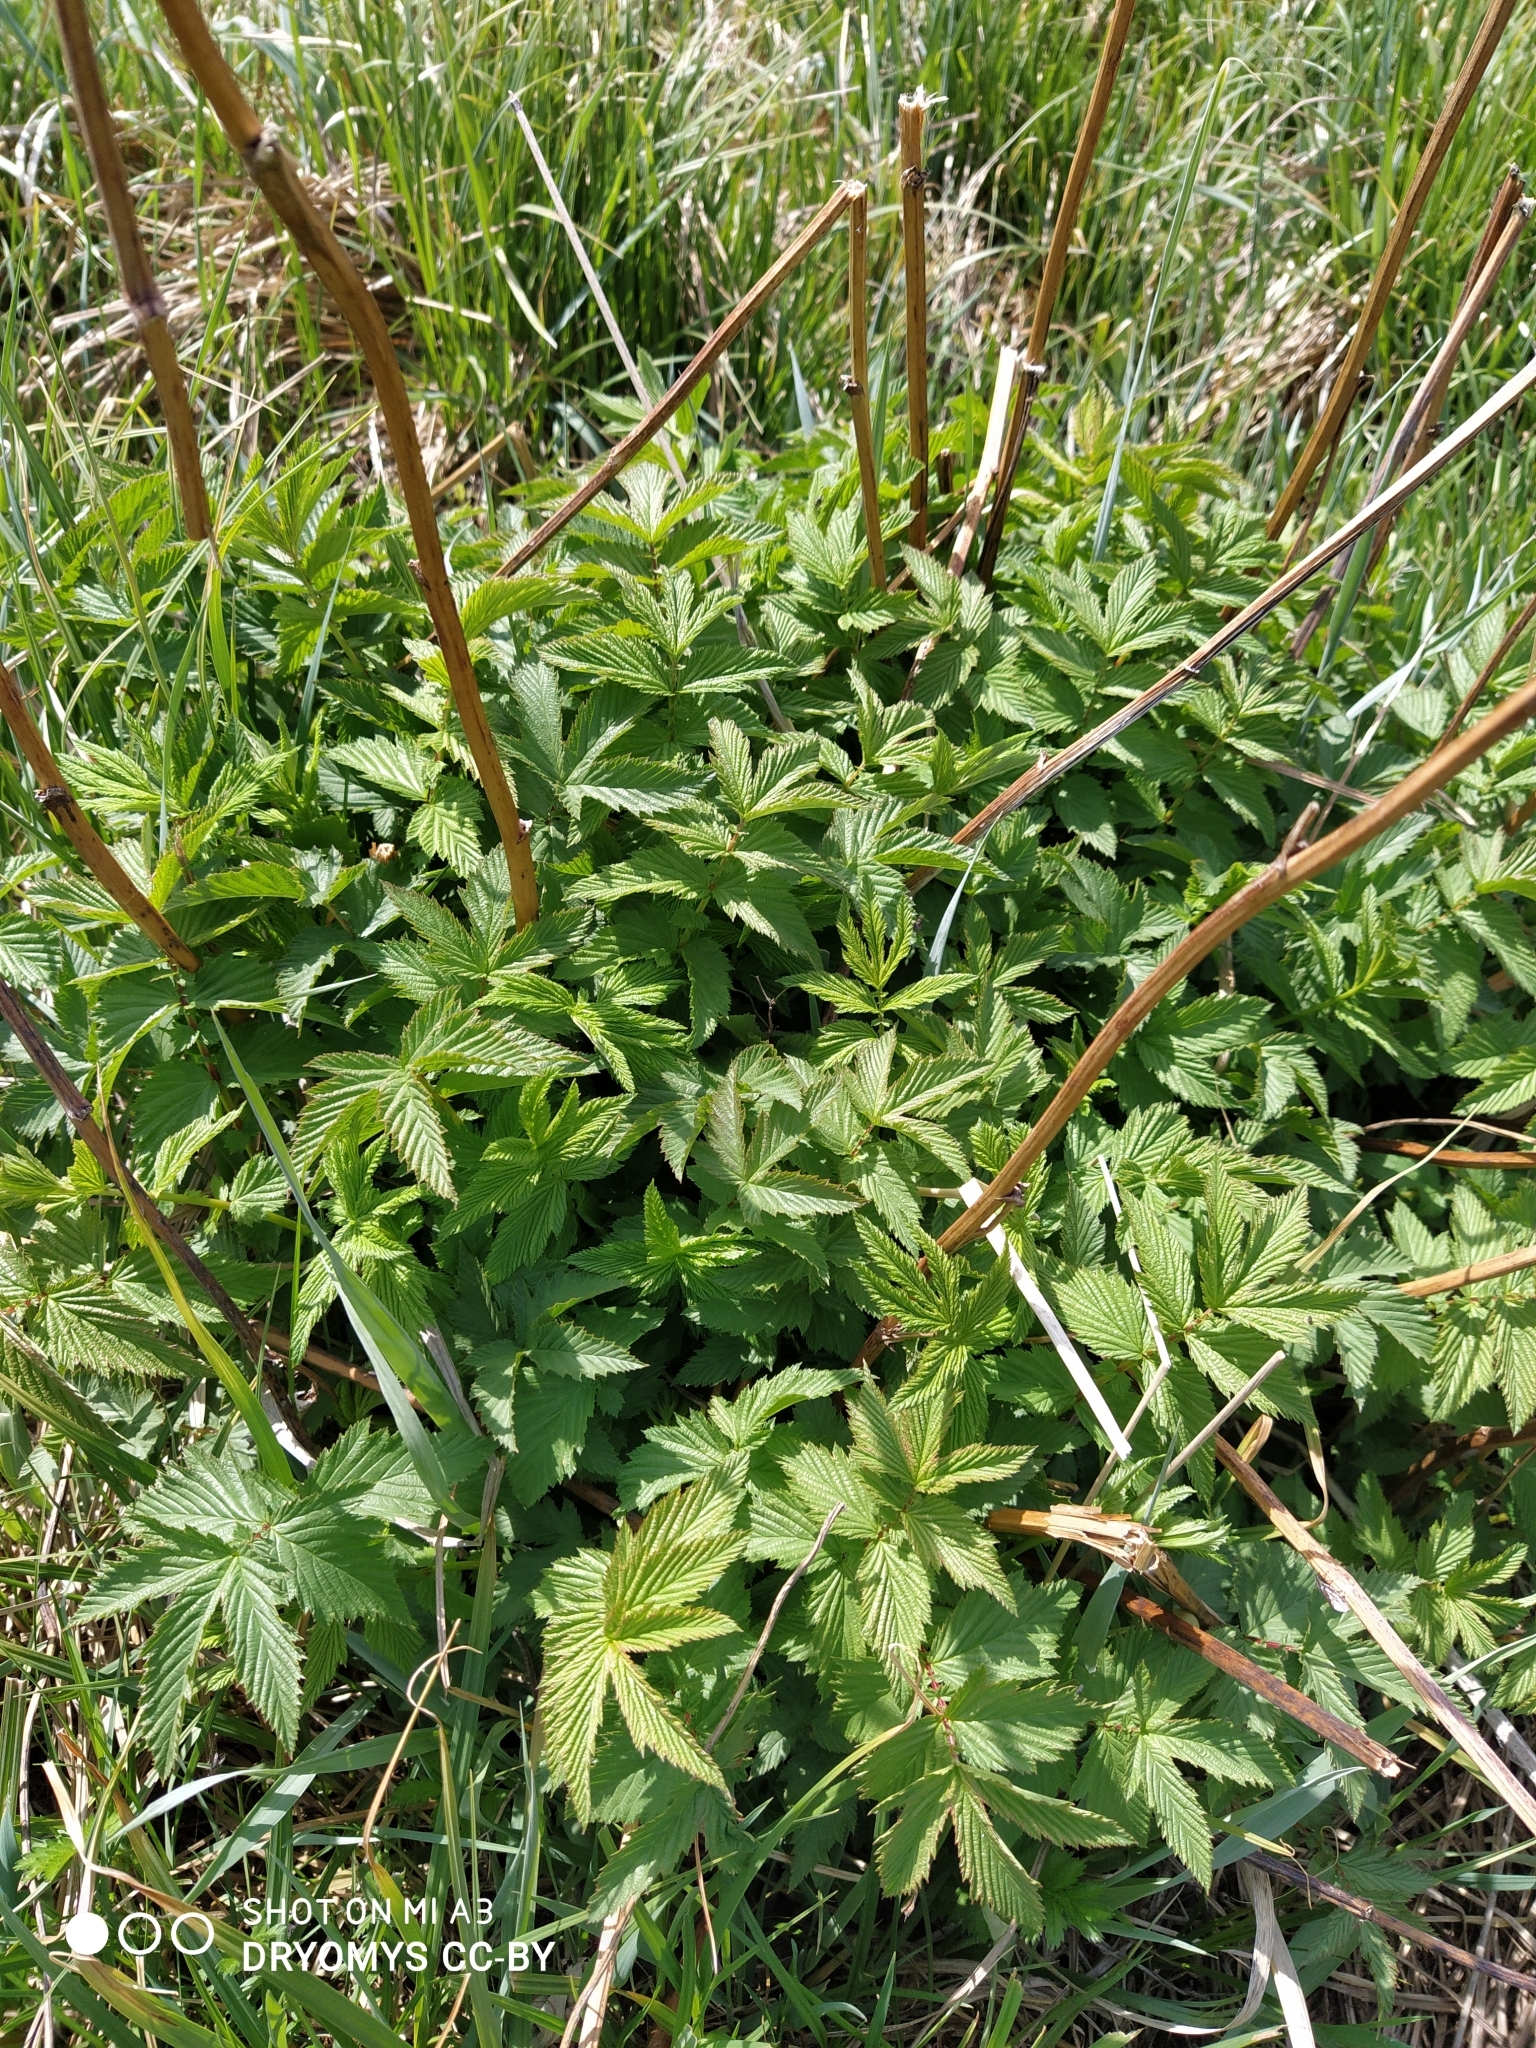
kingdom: Plantae
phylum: Tracheophyta
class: Magnoliopsida
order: Rosales
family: Rosaceae
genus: Filipendula
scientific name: Filipendula ulmaria
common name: Meadowsweet
